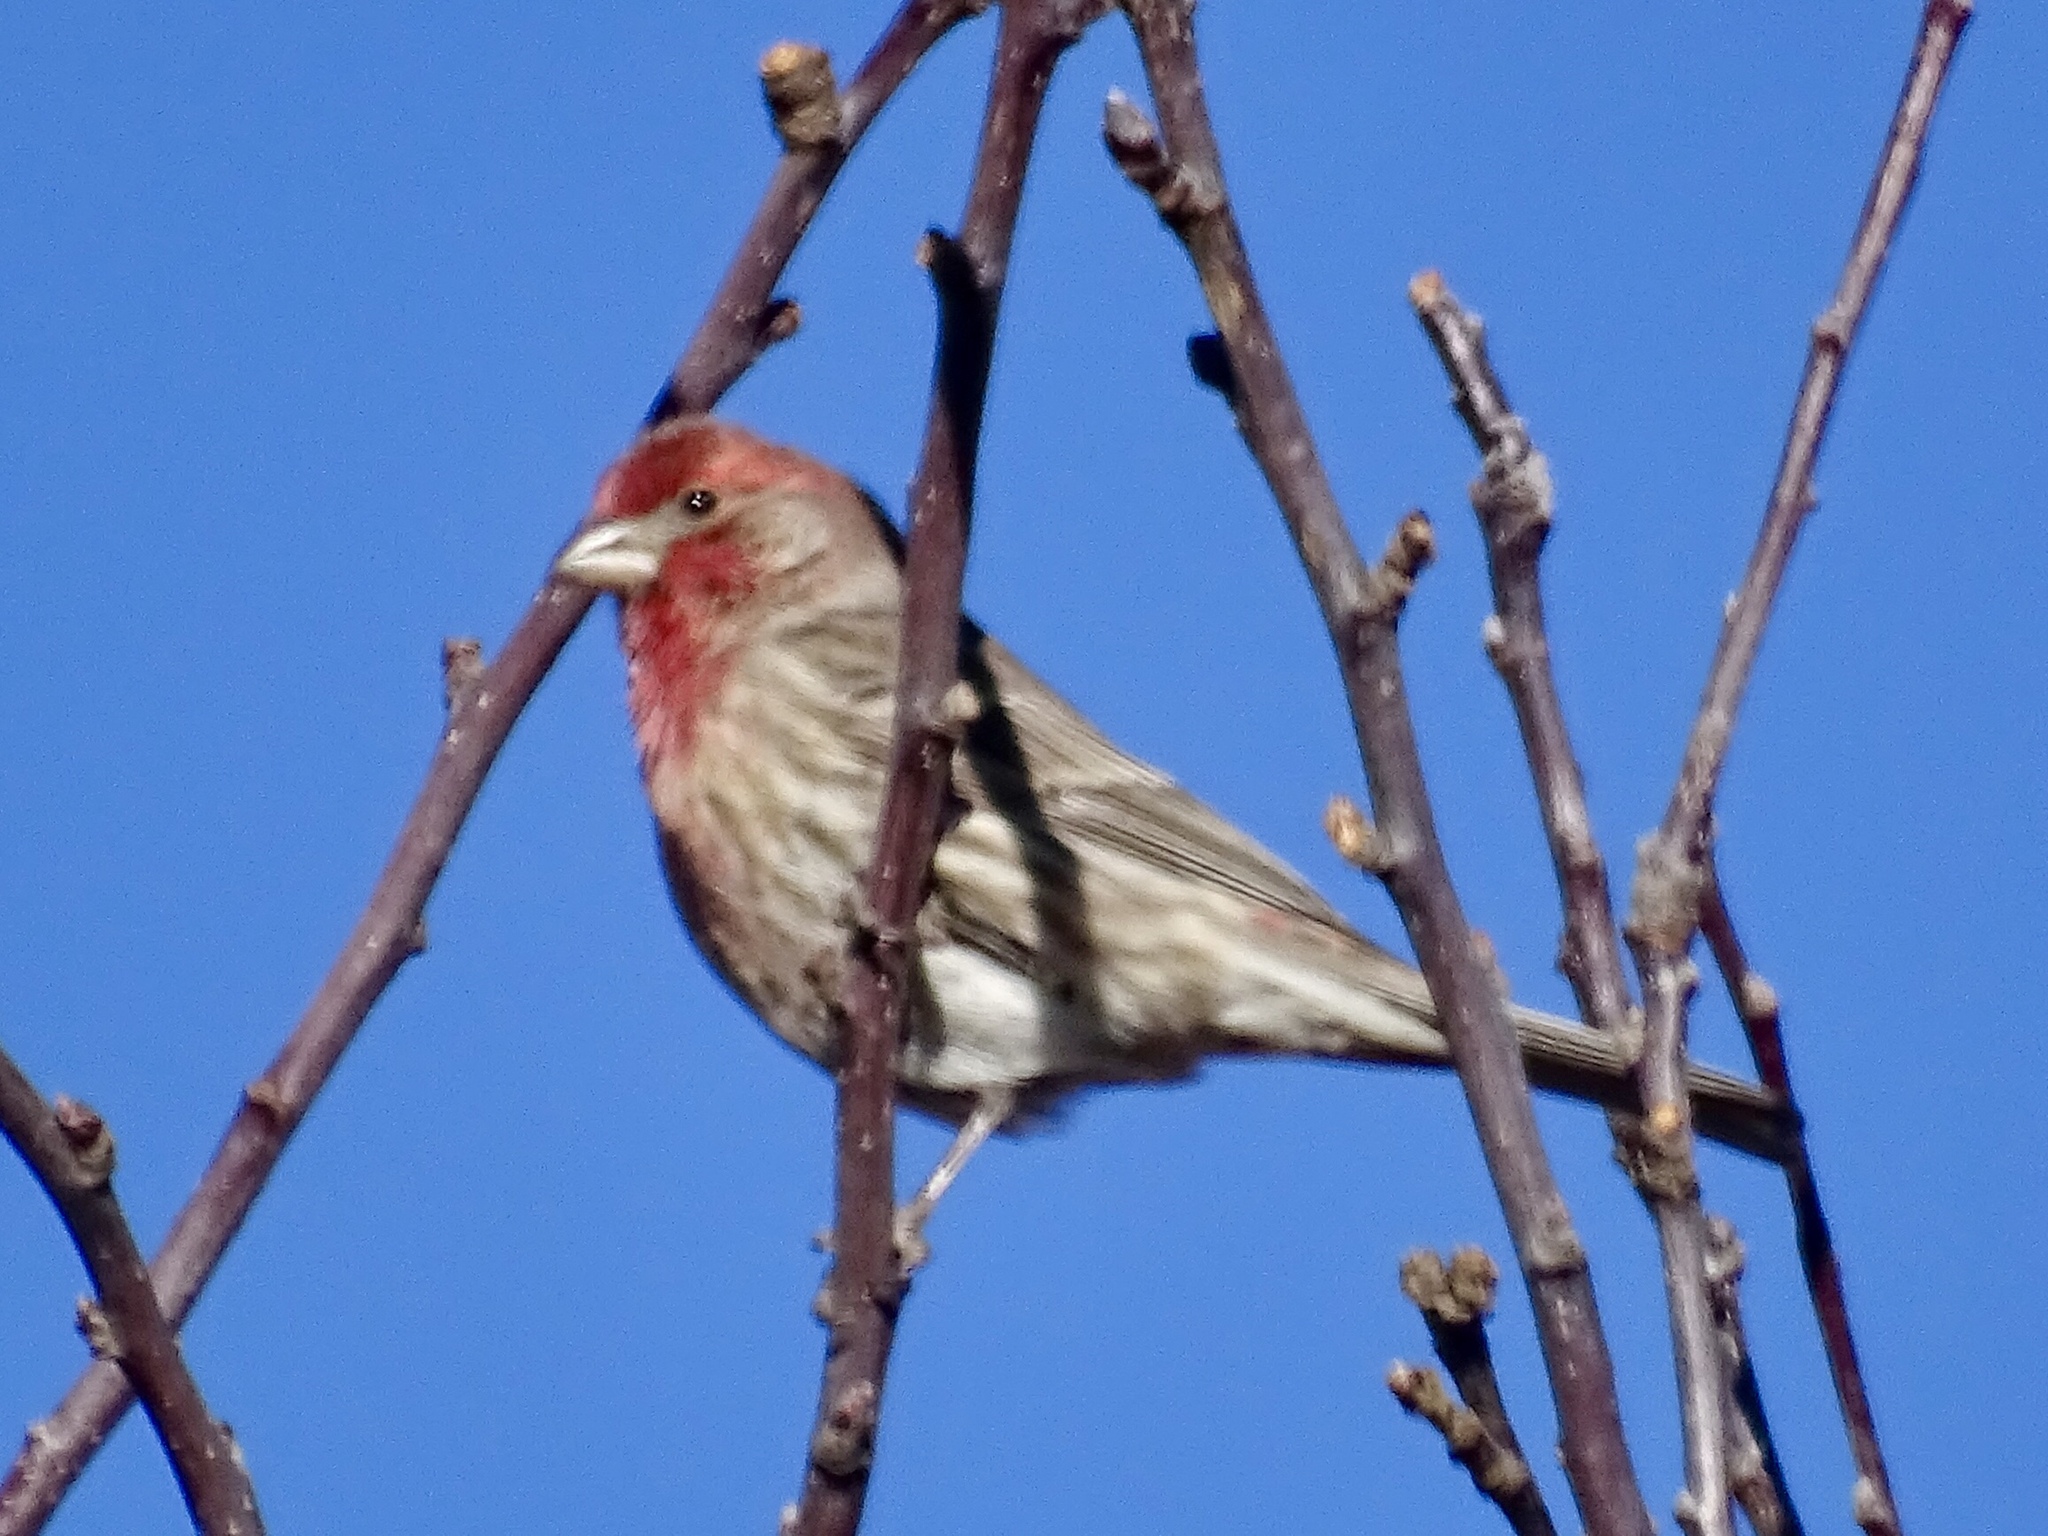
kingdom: Animalia
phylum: Chordata
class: Aves
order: Passeriformes
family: Fringillidae
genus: Haemorhous
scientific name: Haemorhous mexicanus
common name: House finch
